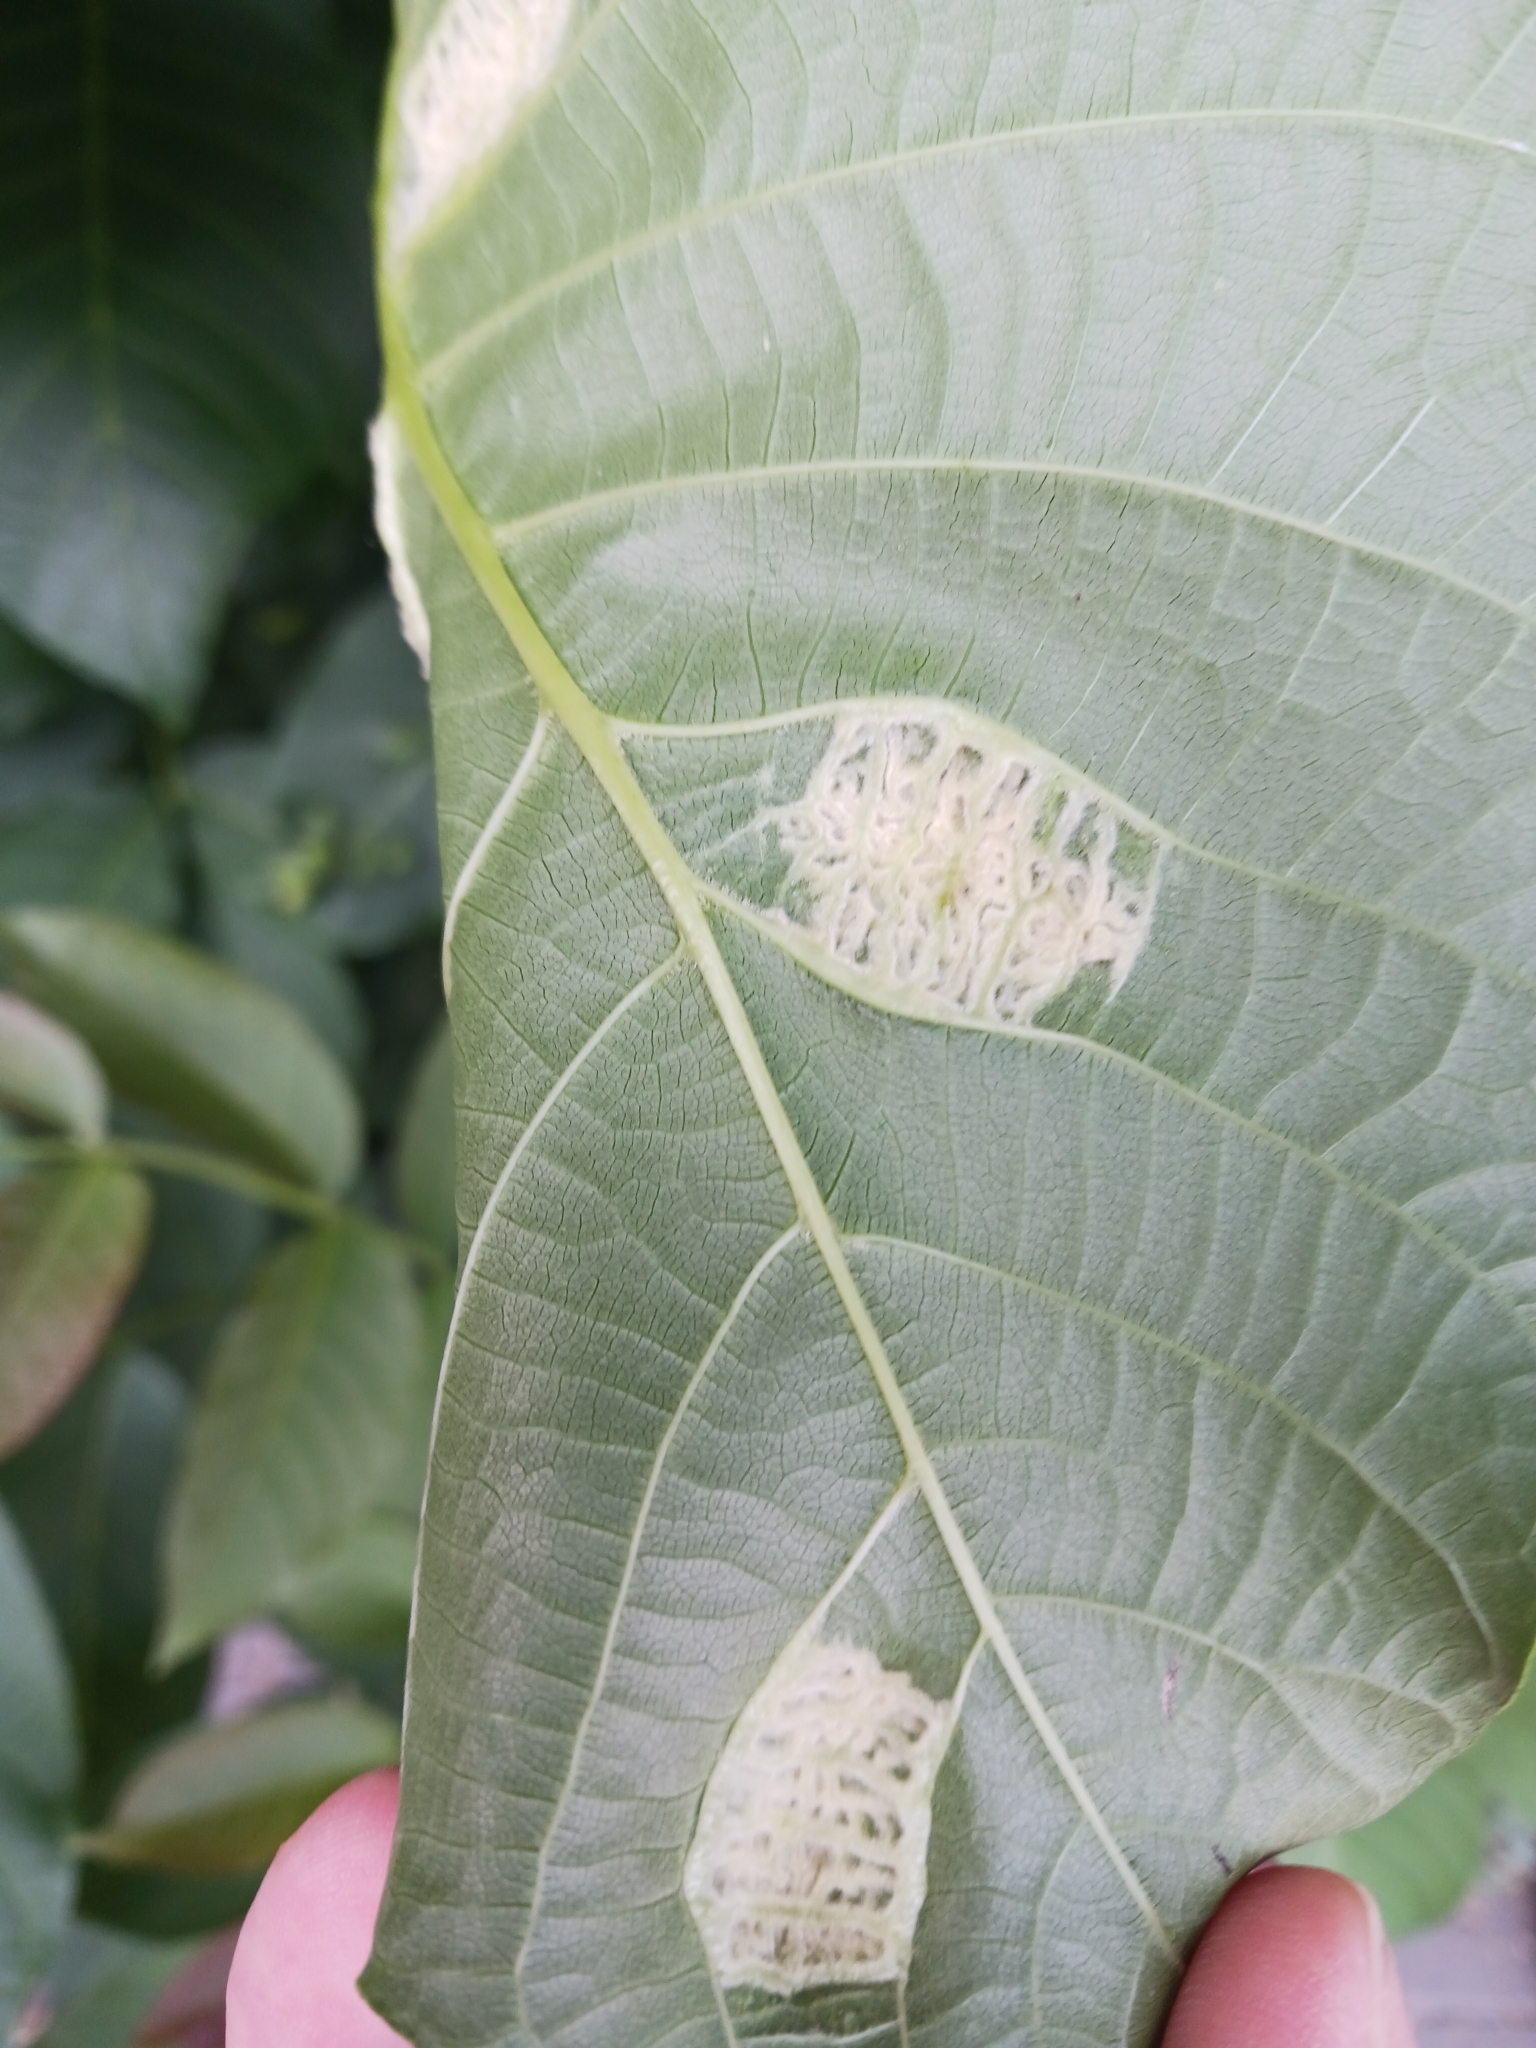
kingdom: Animalia
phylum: Arthropoda
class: Arachnida
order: Trombidiformes
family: Eriophyidae
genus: Aceria
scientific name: Aceria erinea
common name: Persian walnut erineum mite
